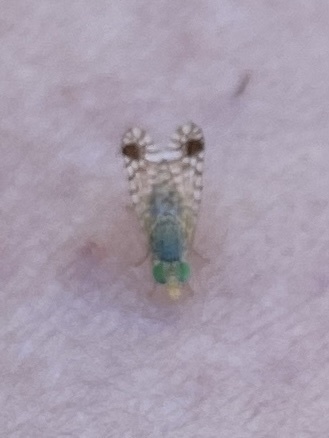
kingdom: Animalia
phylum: Arthropoda
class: Insecta
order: Diptera
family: Tephritidae
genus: Euarestoides
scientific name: Euarestoides acutangulus
